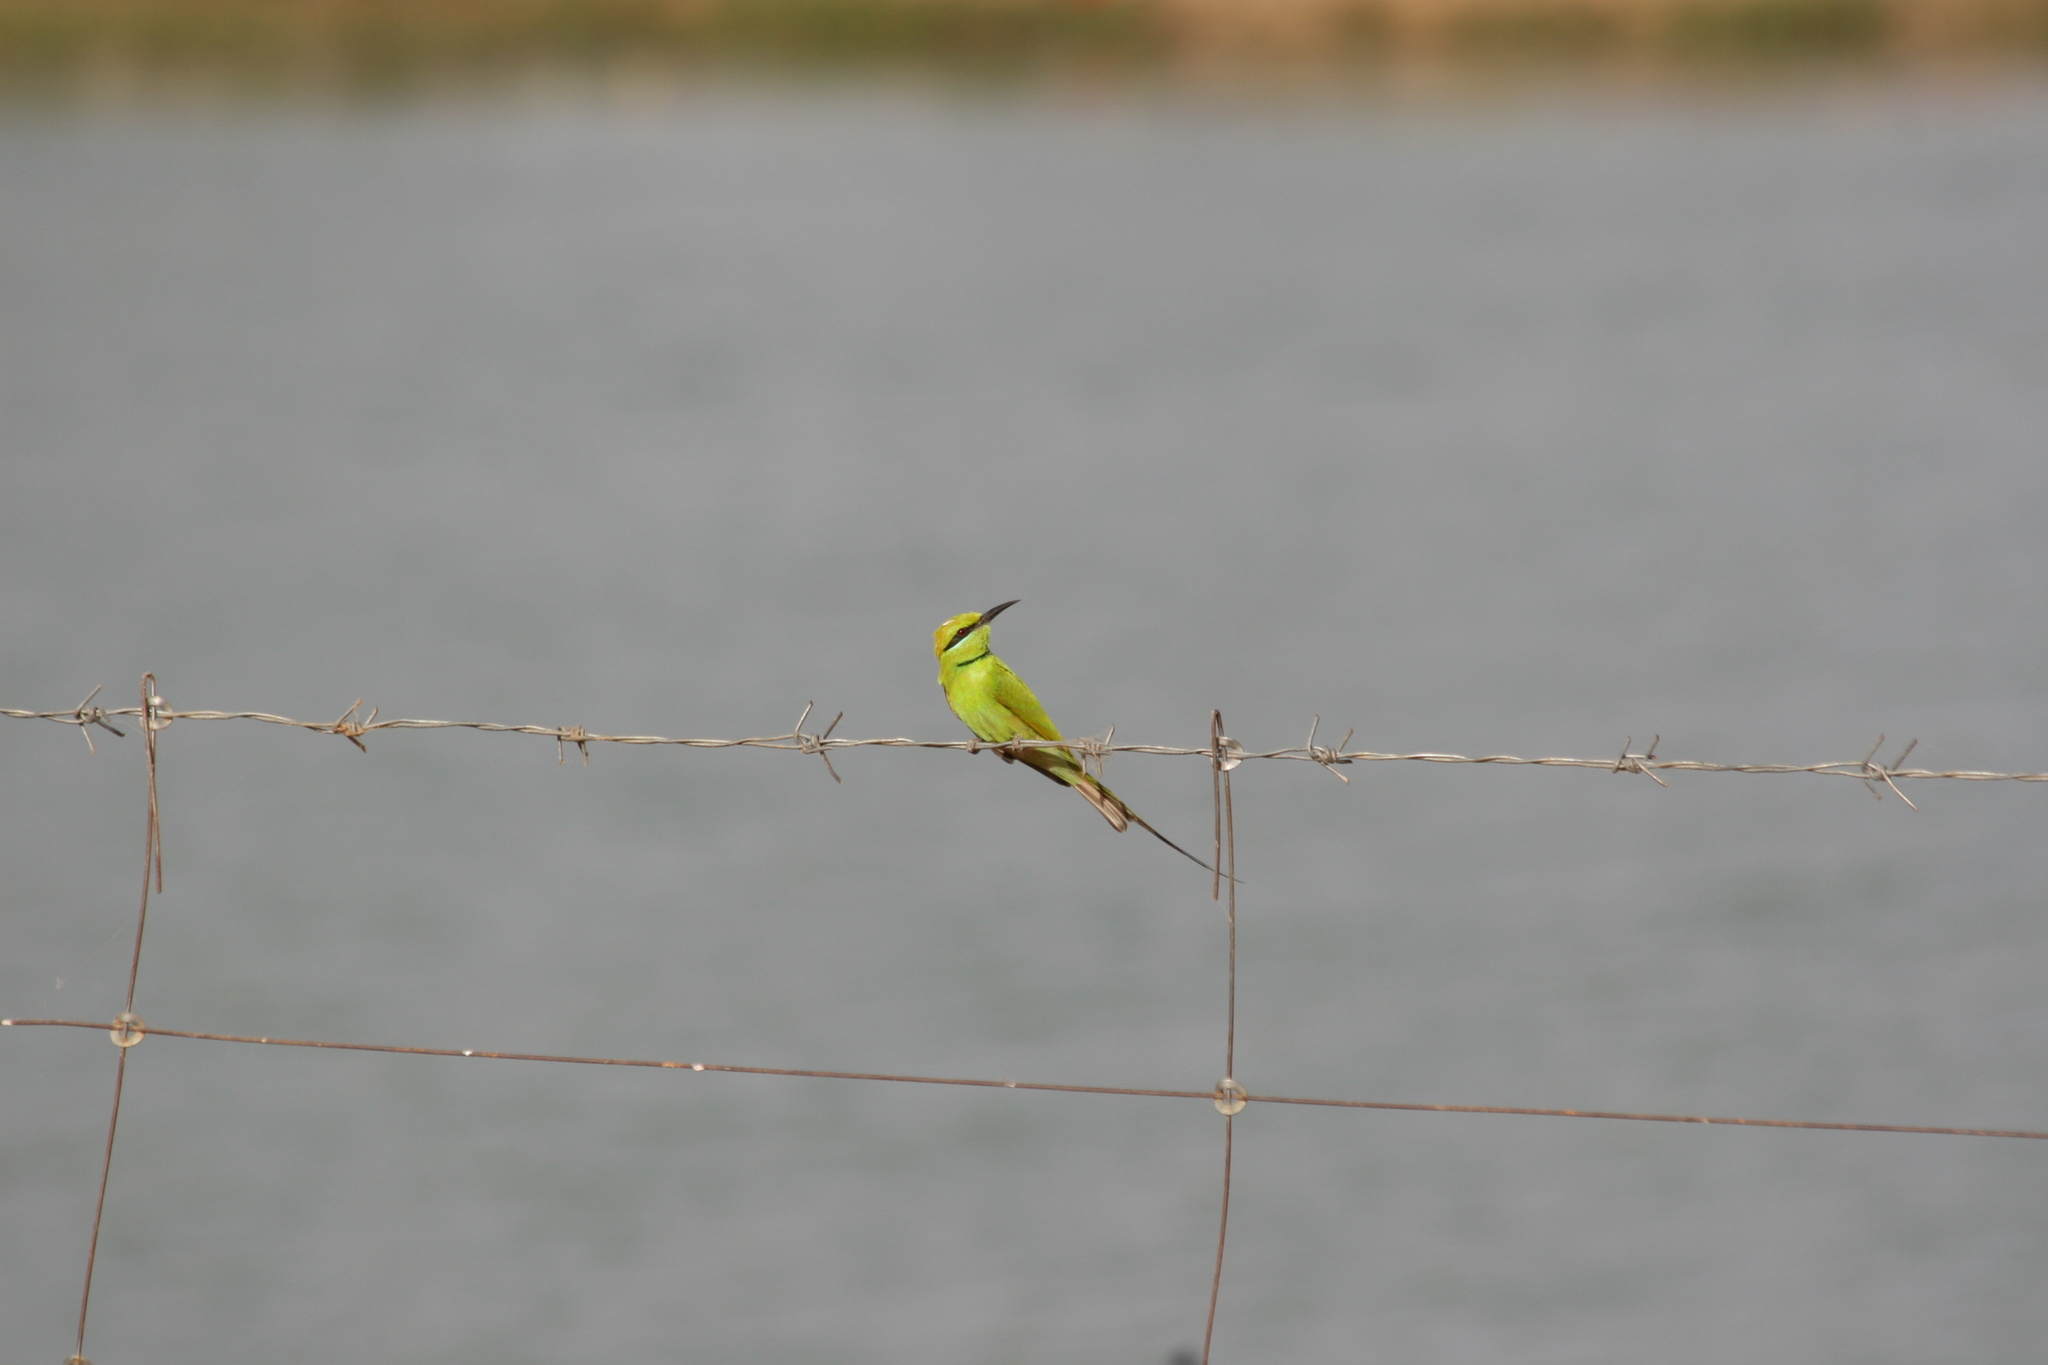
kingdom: Animalia
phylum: Chordata
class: Aves
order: Coraciiformes
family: Meropidae
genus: Merops
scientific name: Merops viridissimus
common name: African green bee-eater
